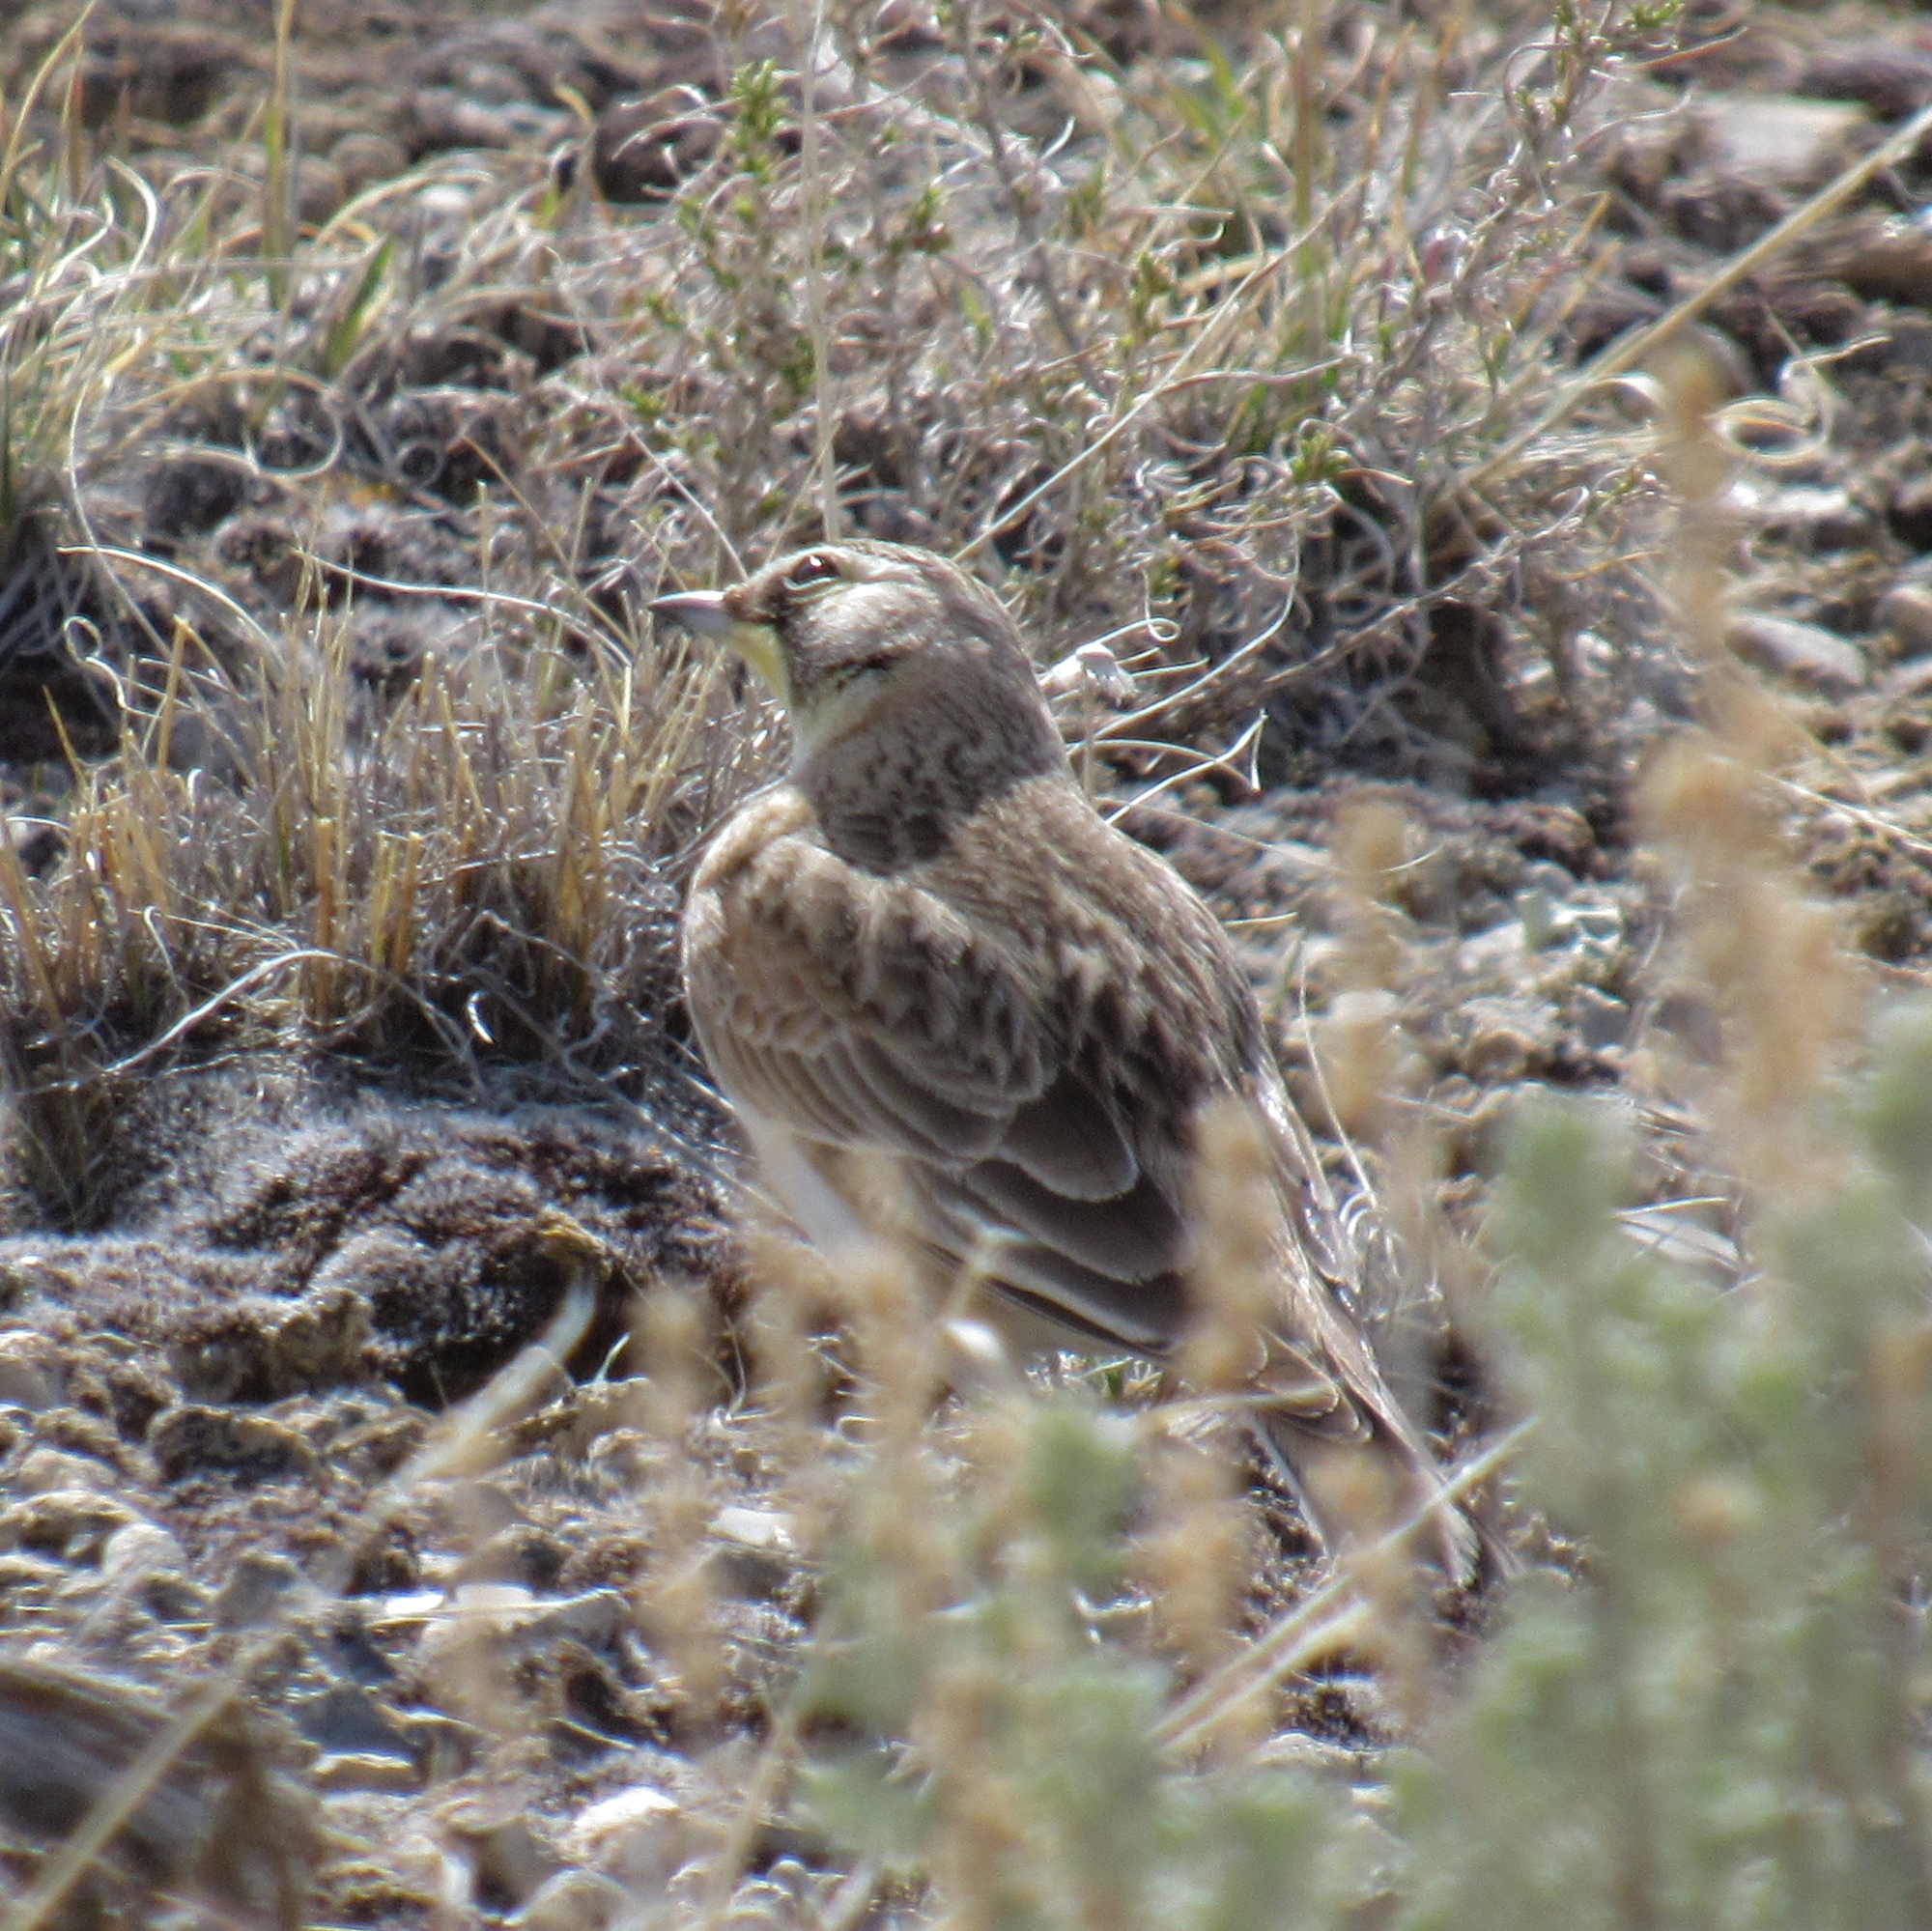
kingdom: Animalia
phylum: Chordata
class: Aves
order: Passeriformes
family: Alaudidae
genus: Eremophila
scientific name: Eremophila alpestris
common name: Horned lark
